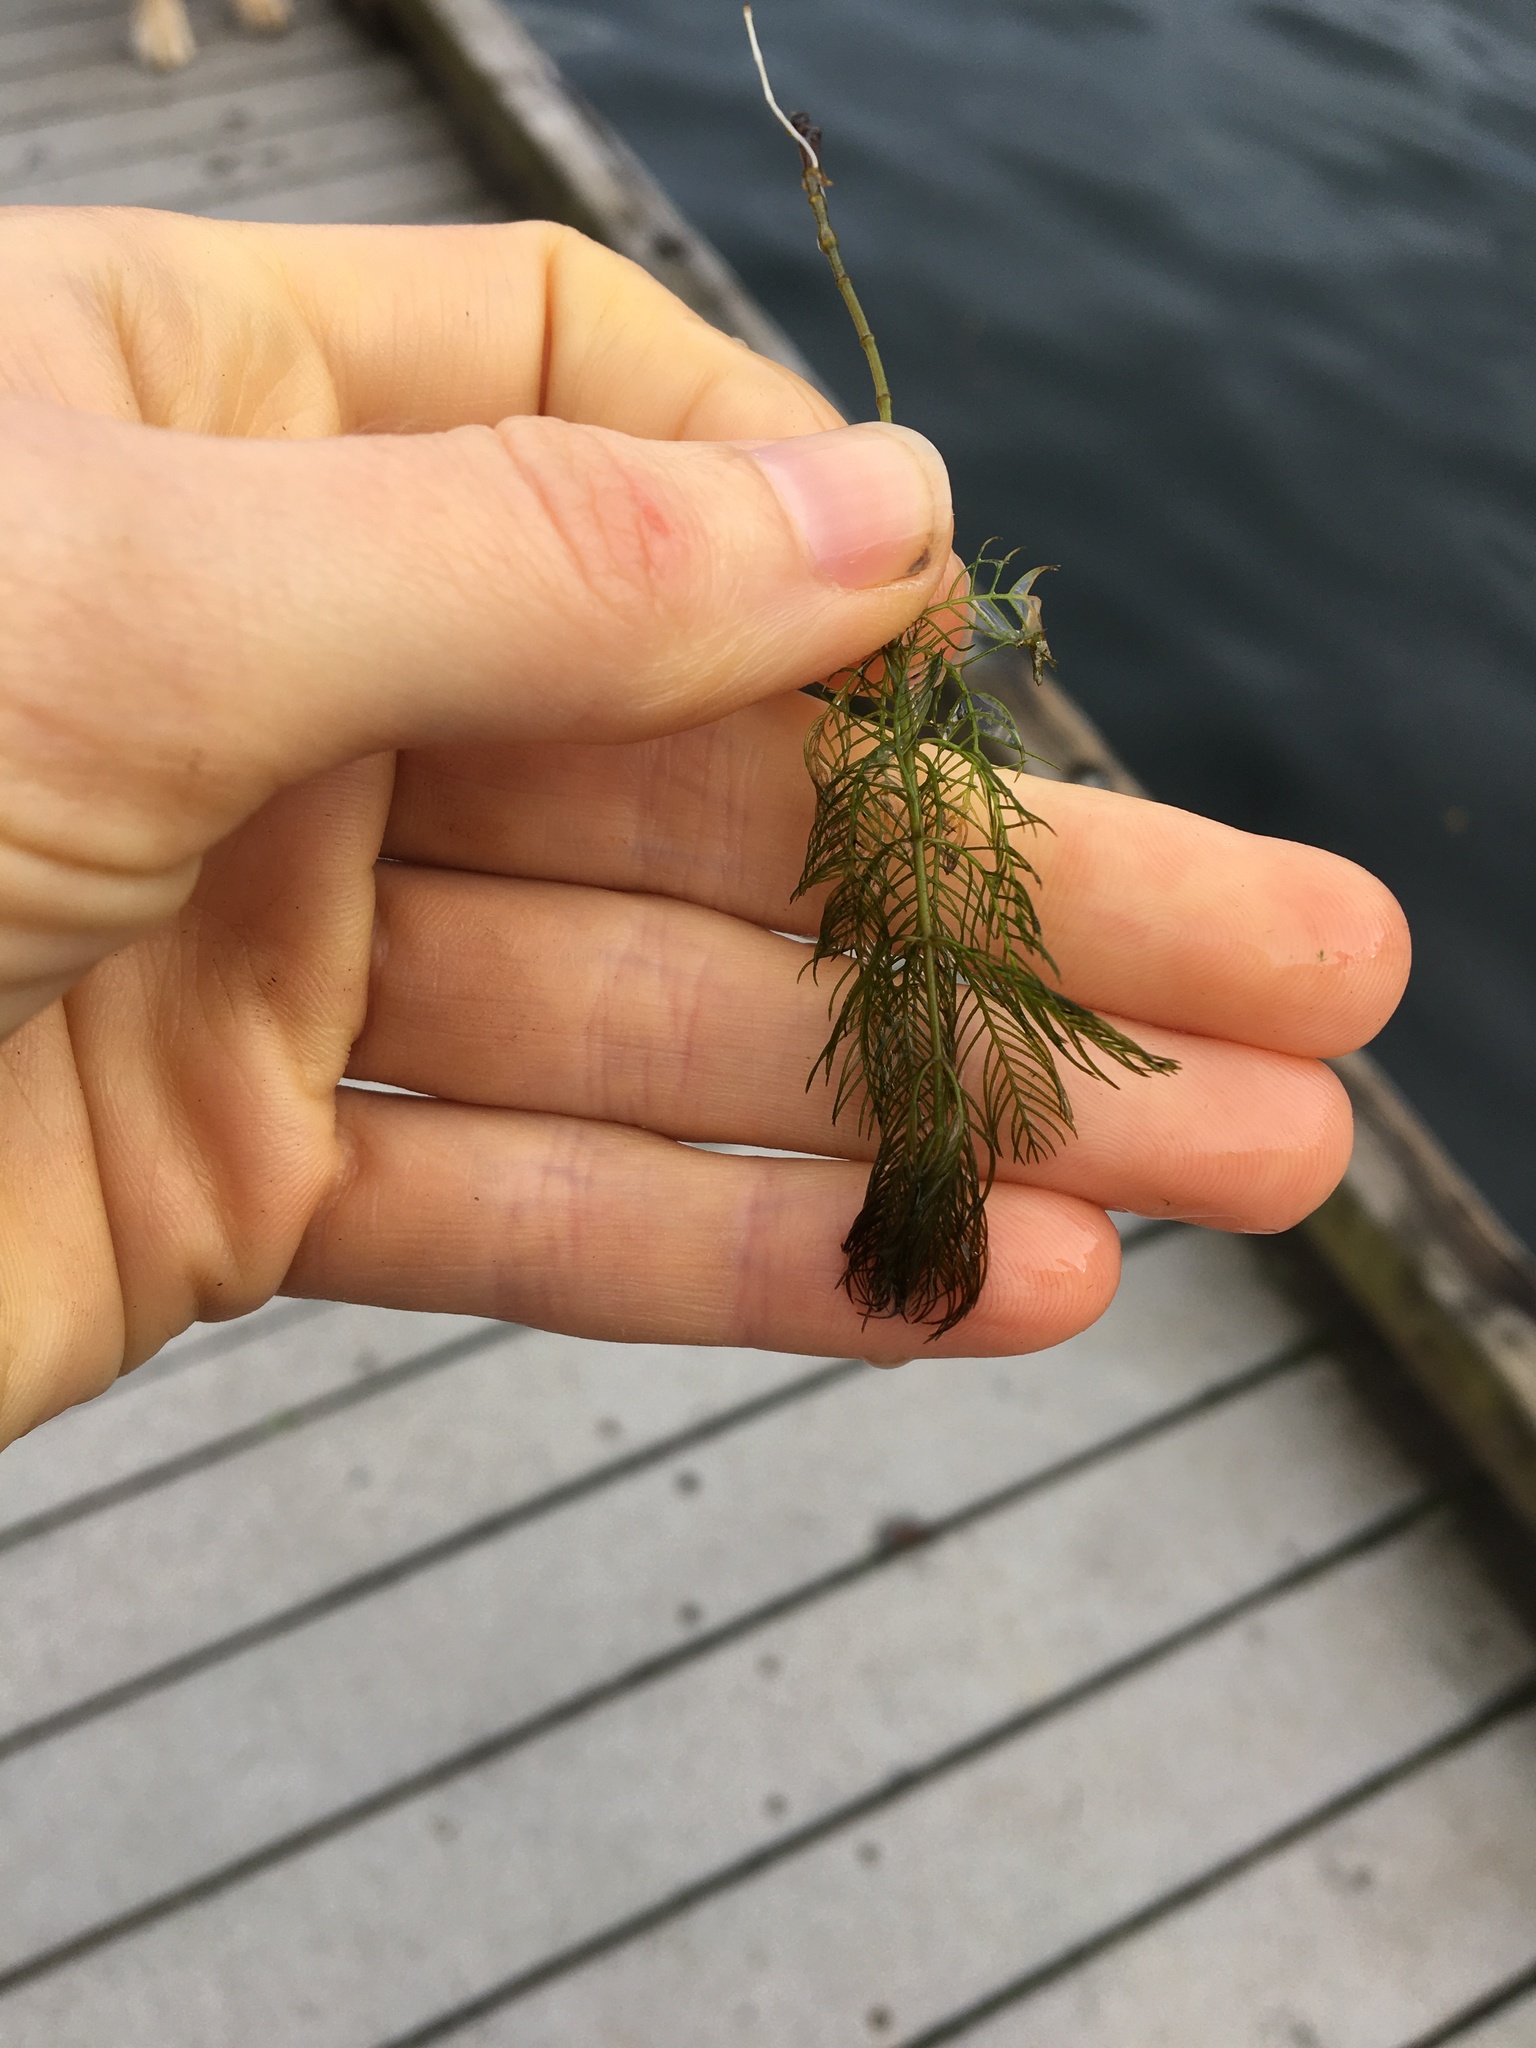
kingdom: Plantae
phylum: Tracheophyta
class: Magnoliopsida
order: Saxifragales
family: Haloragaceae
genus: Myriophyllum
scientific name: Myriophyllum spicatum
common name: Spiked water-milfoil
